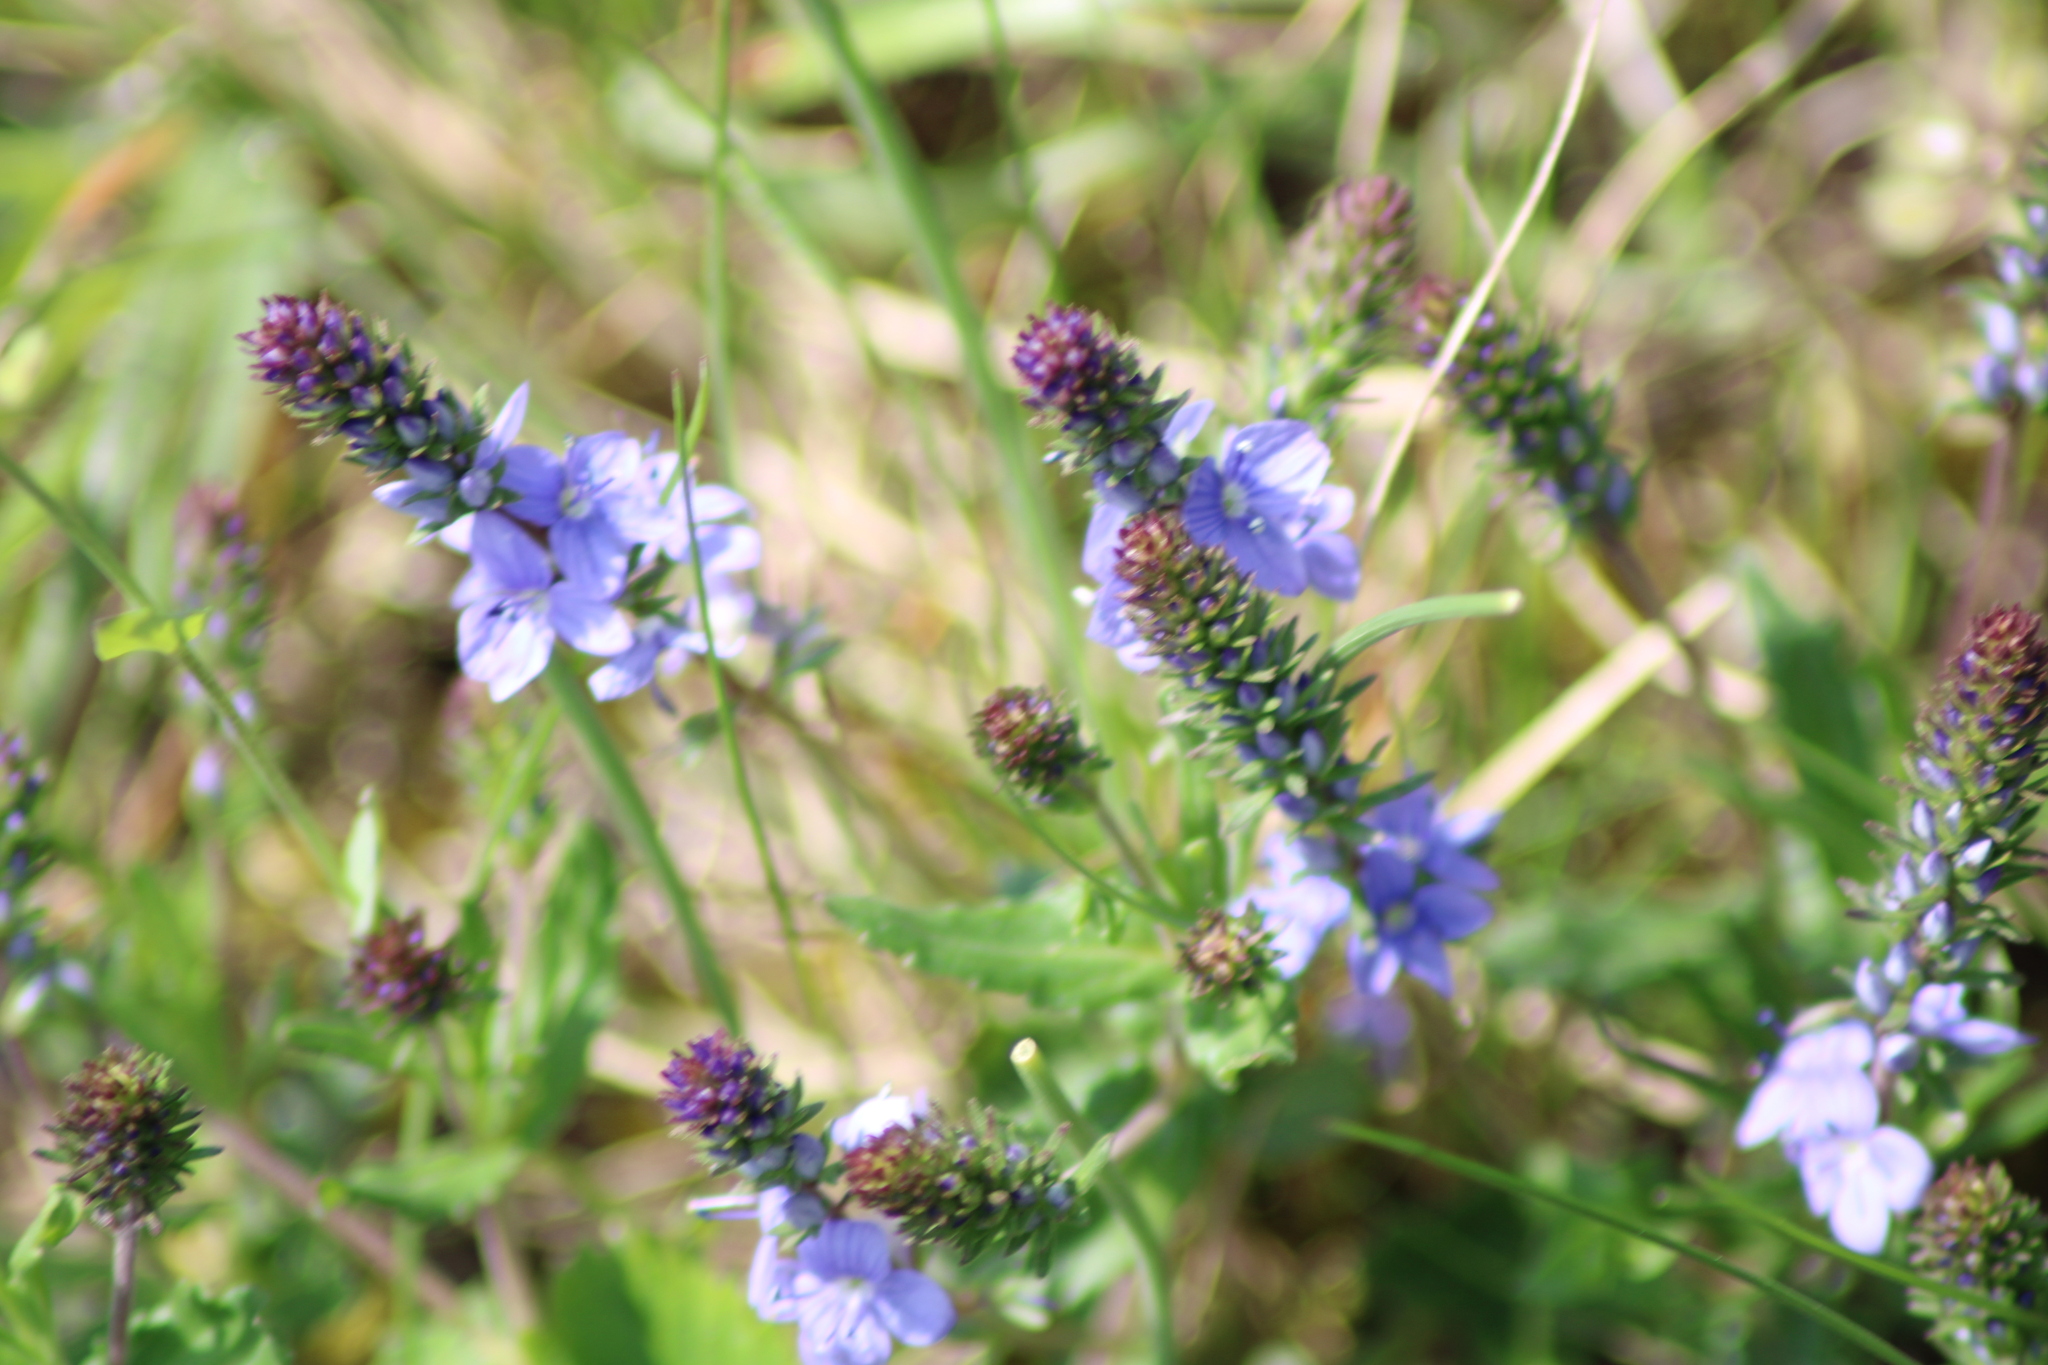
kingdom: Plantae
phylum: Tracheophyta
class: Magnoliopsida
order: Lamiales
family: Plantaginaceae
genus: Veronica
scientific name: Veronica prostrata
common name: Prostrate speedwell
